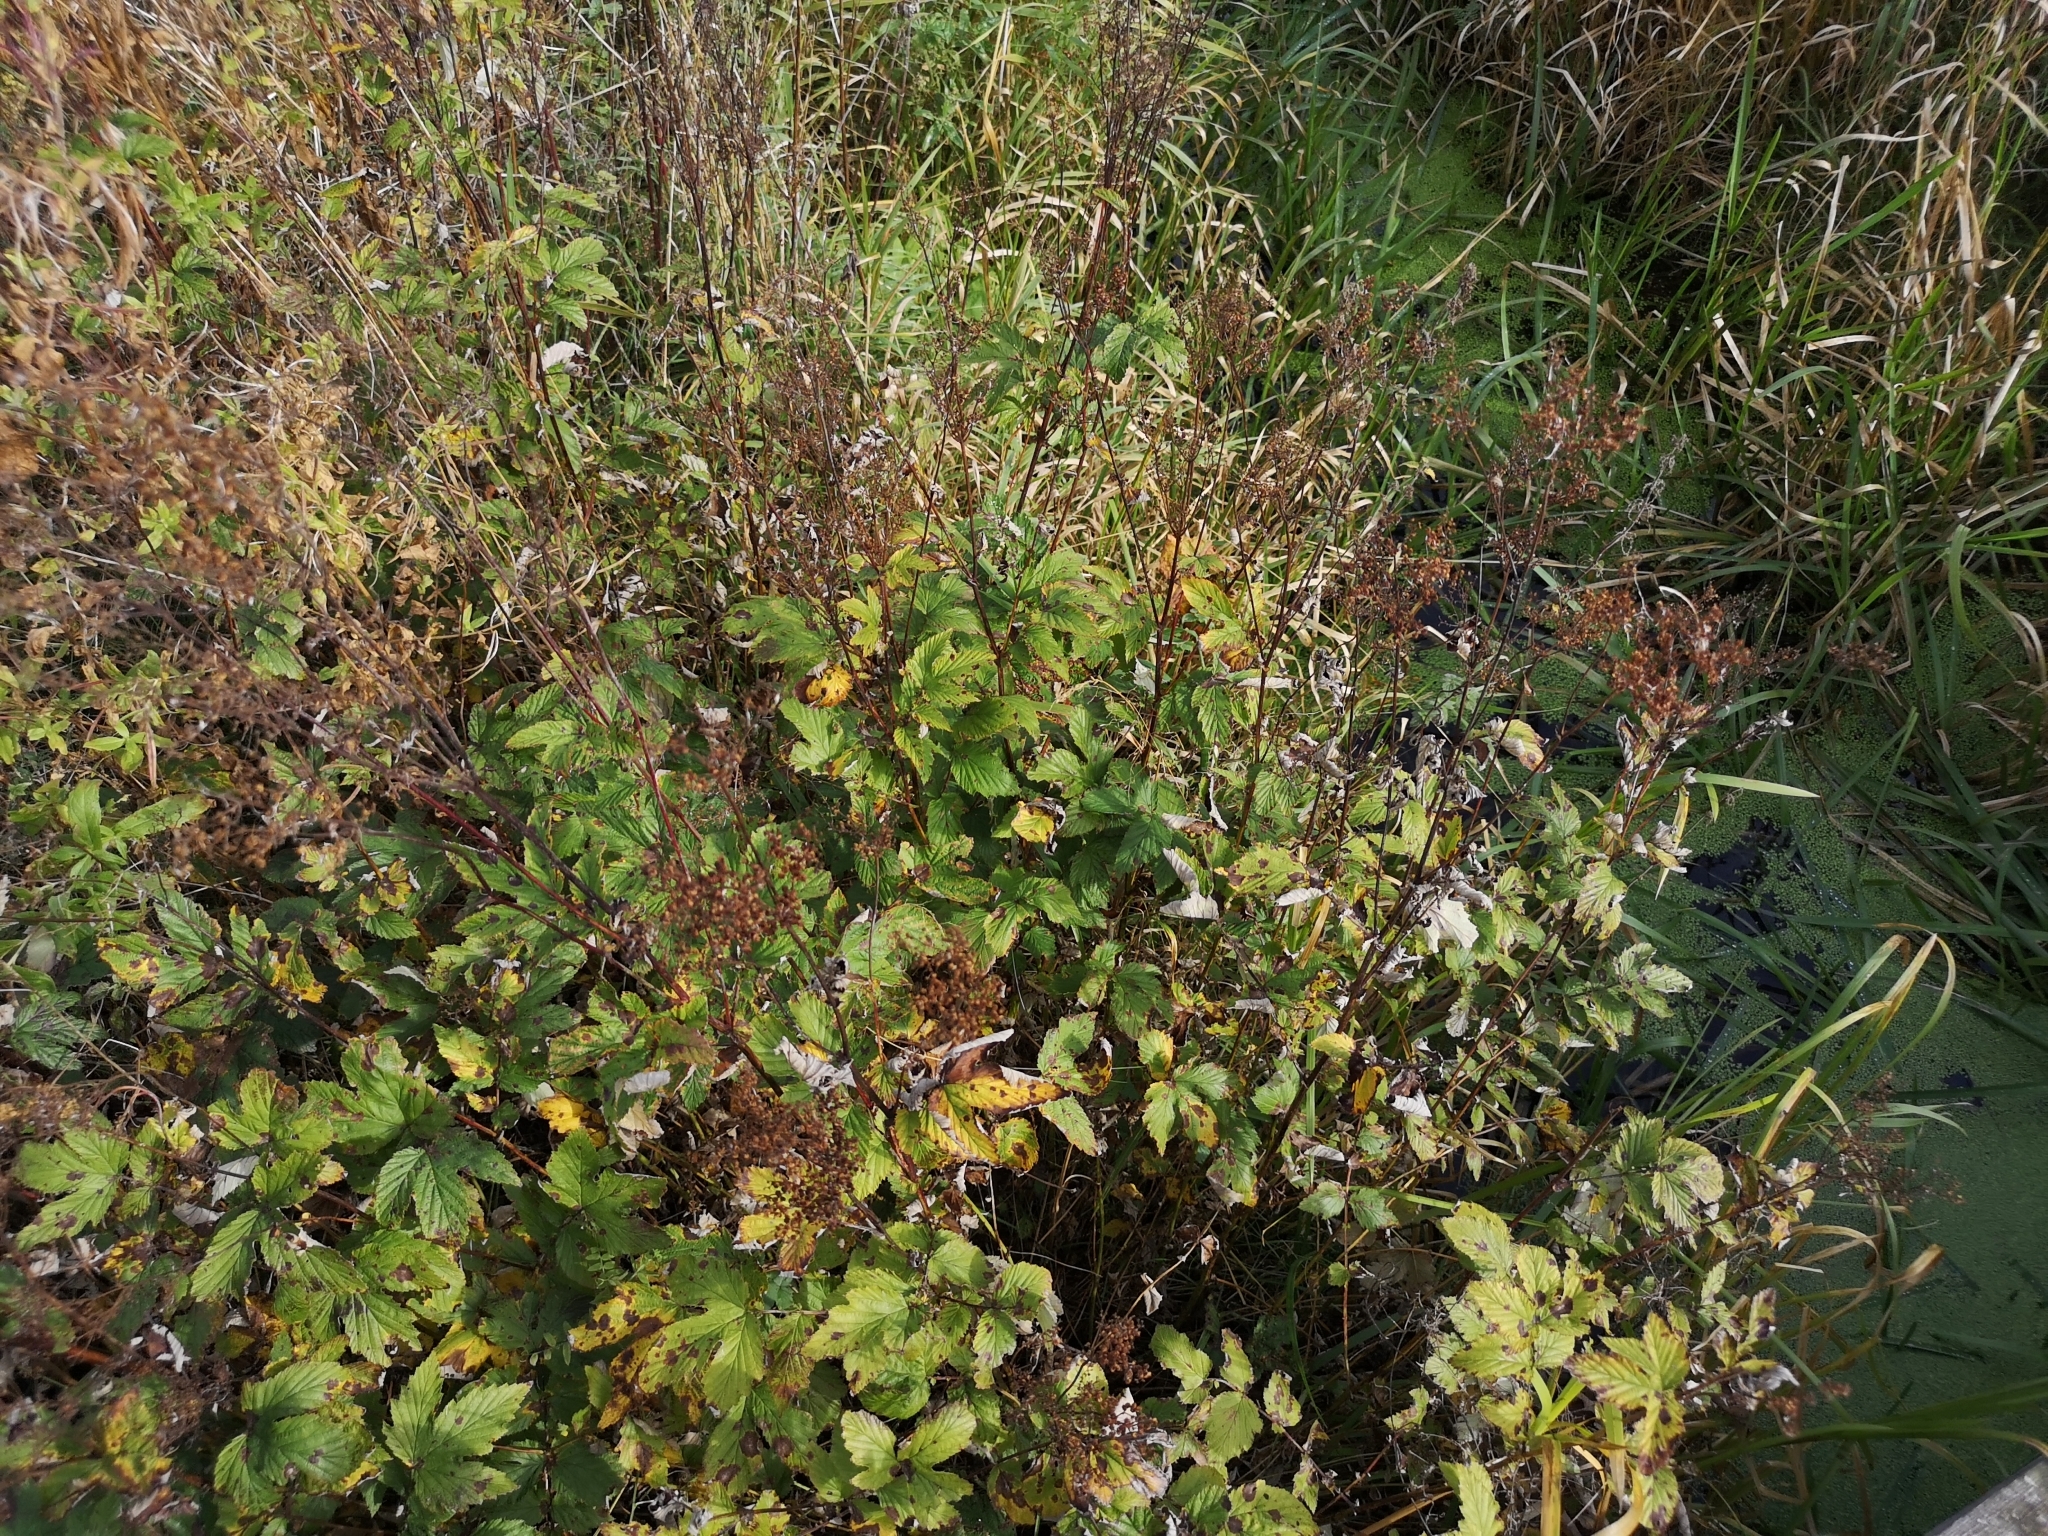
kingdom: Plantae
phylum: Tracheophyta
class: Magnoliopsida
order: Rosales
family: Rosaceae
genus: Filipendula
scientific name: Filipendula ulmaria
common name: Meadowsweet
